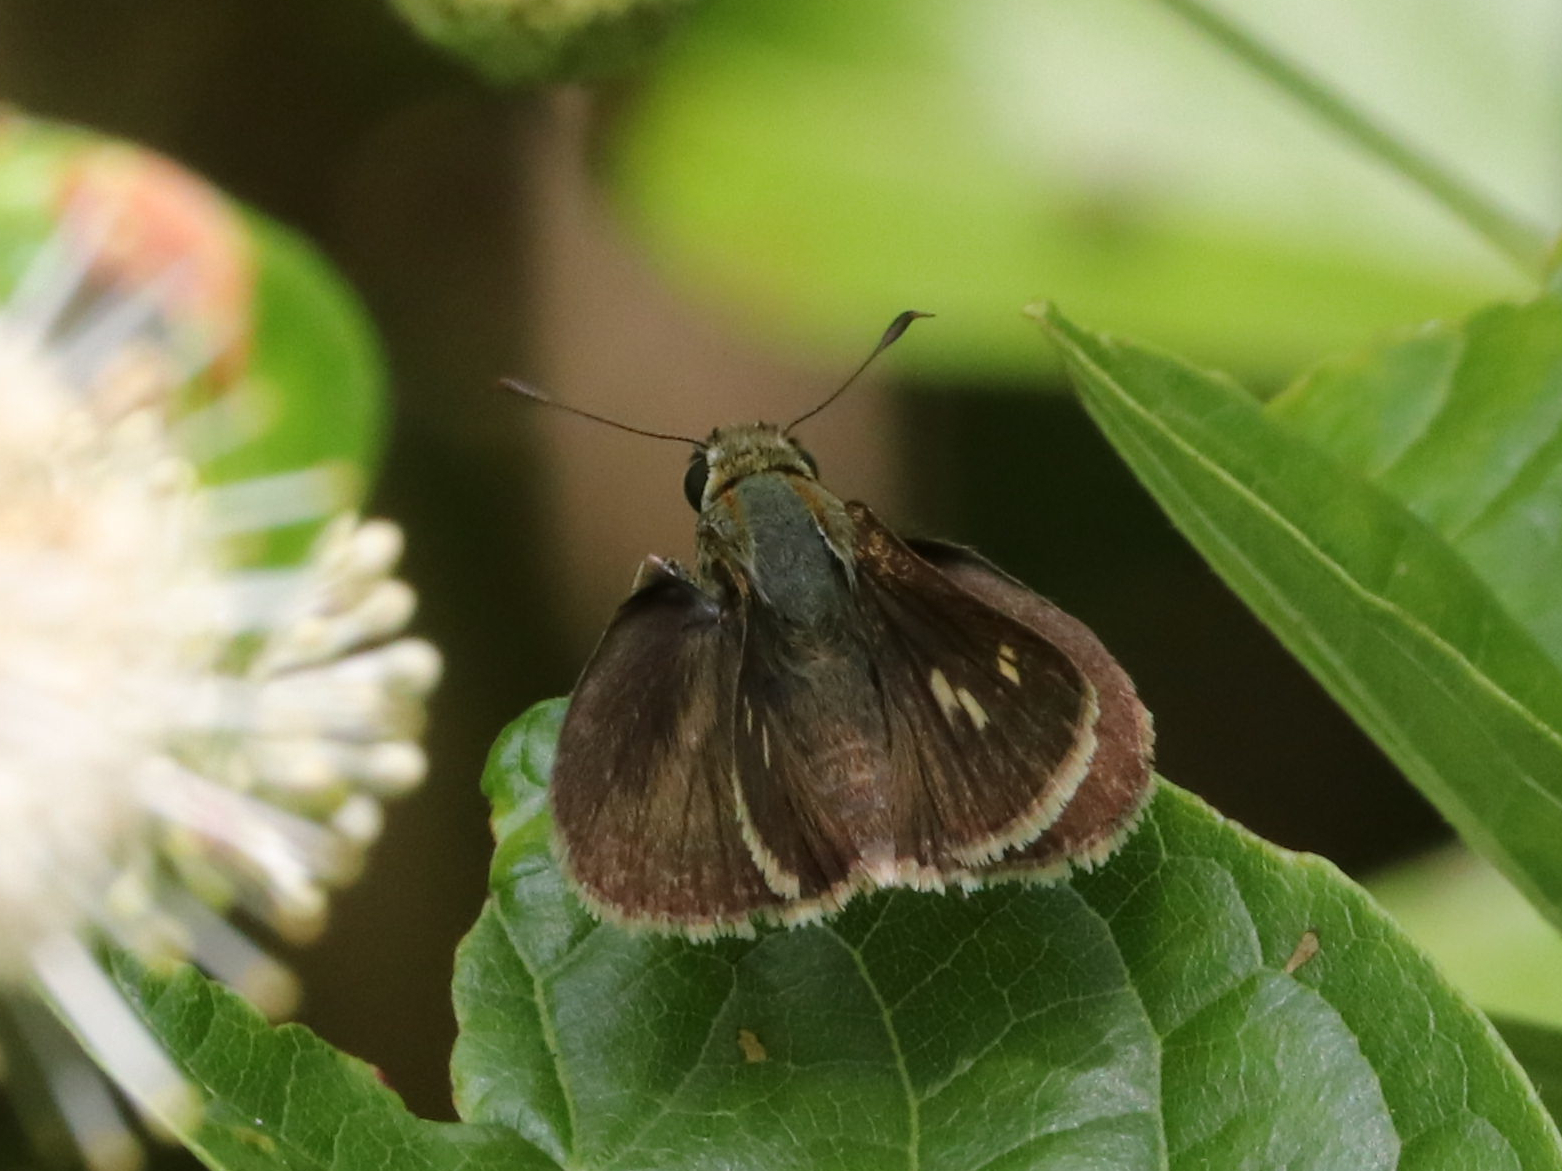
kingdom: Animalia
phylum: Arthropoda
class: Insecta
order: Lepidoptera
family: Hesperiidae
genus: Euphyes
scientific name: Euphyes vestris
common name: Dun skipper
